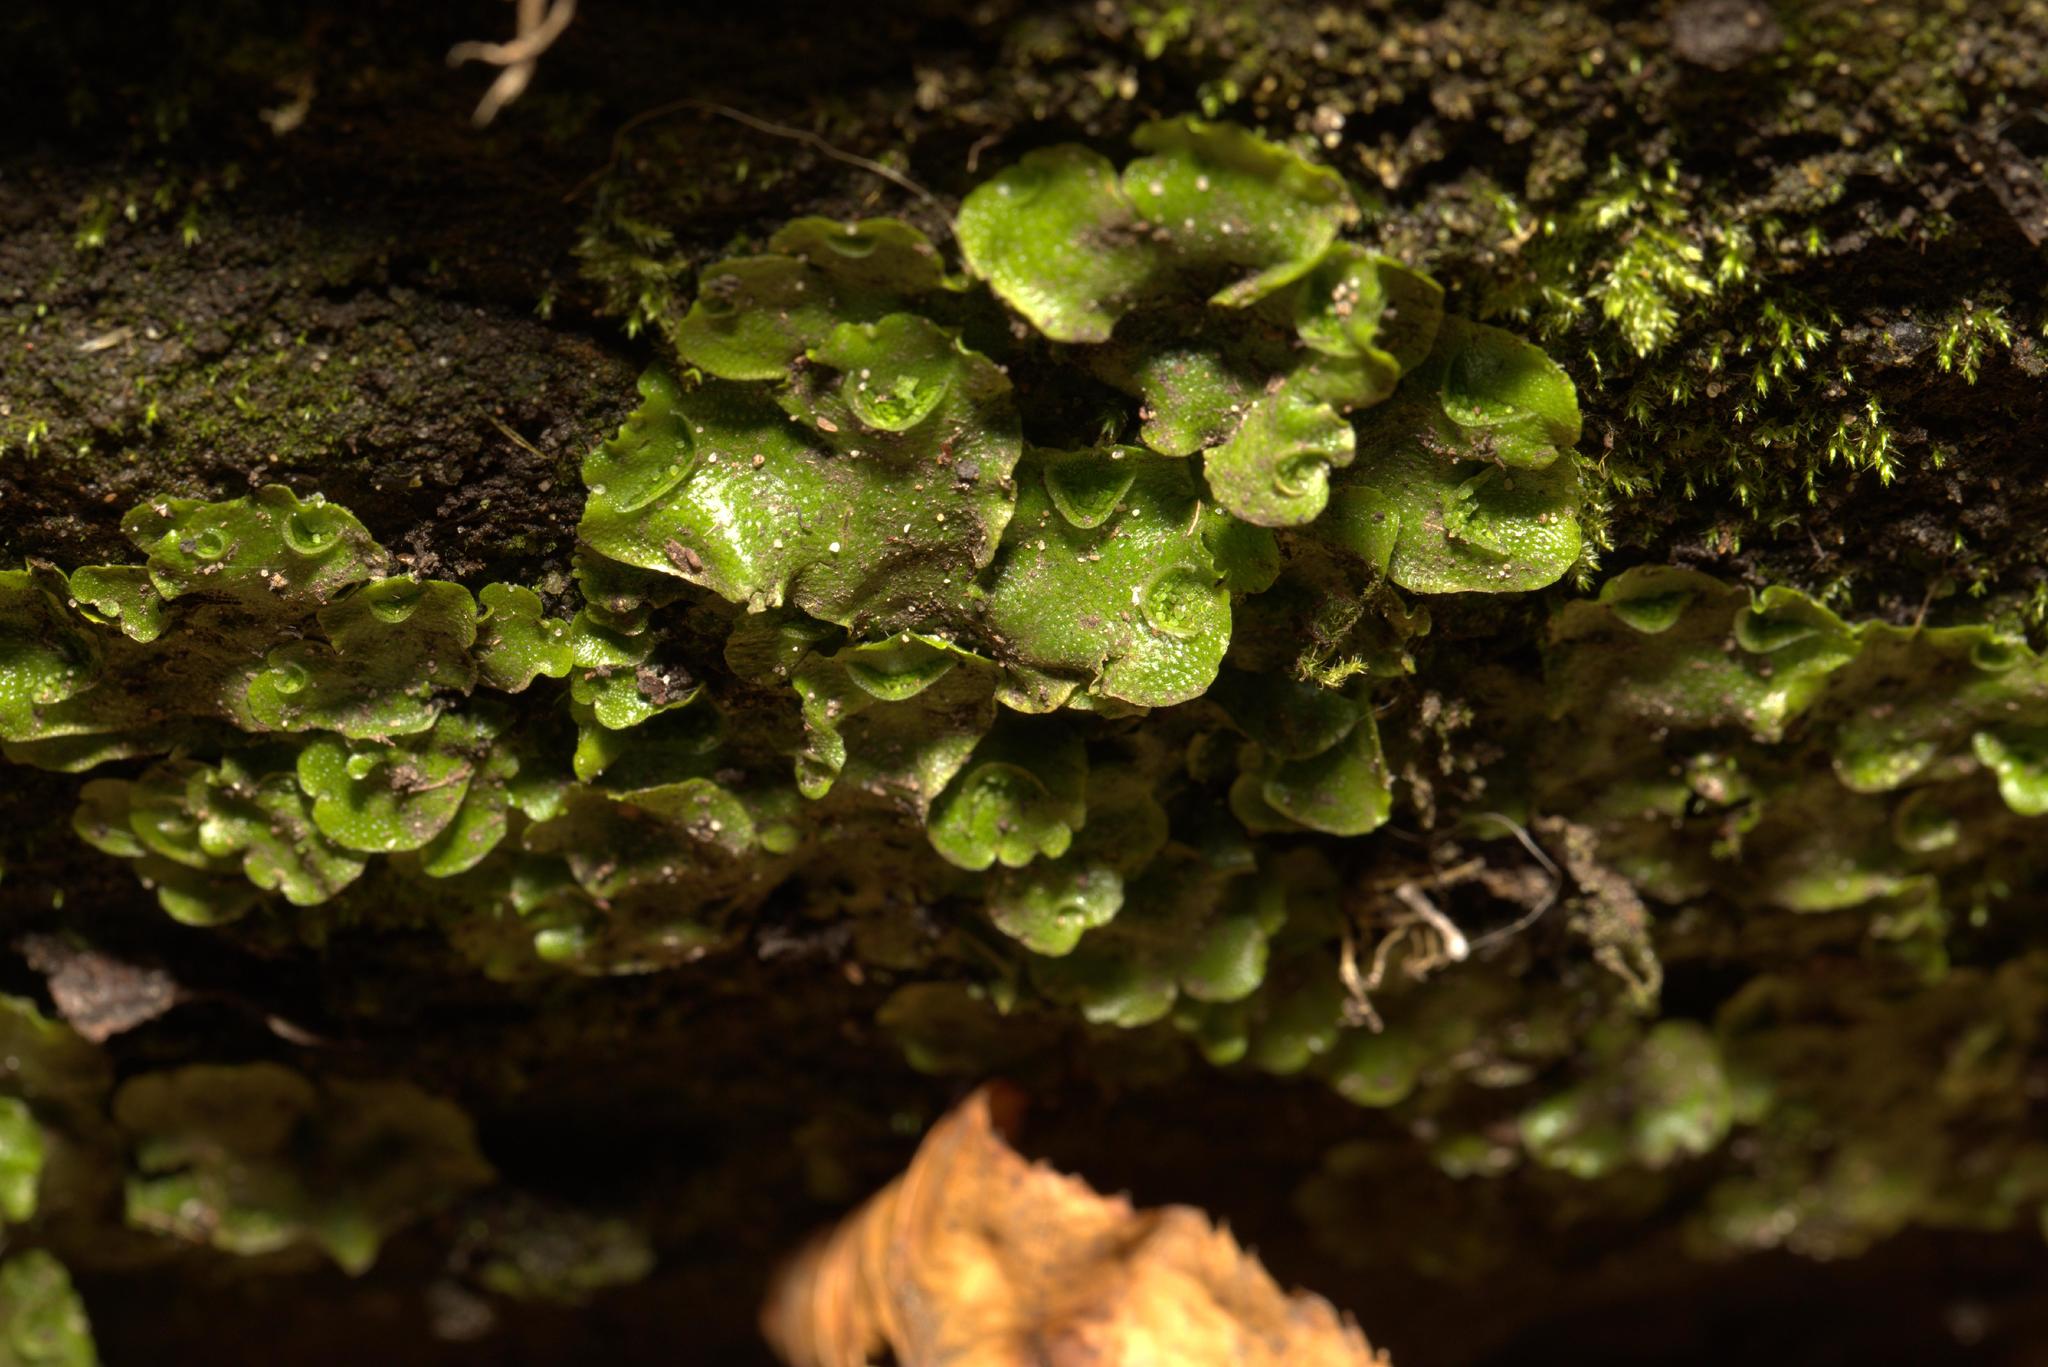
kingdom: Plantae
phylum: Marchantiophyta
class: Marchantiopsida
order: Lunulariales
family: Lunulariaceae
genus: Lunularia
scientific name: Lunularia cruciata
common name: Crescent-cup liverwort
